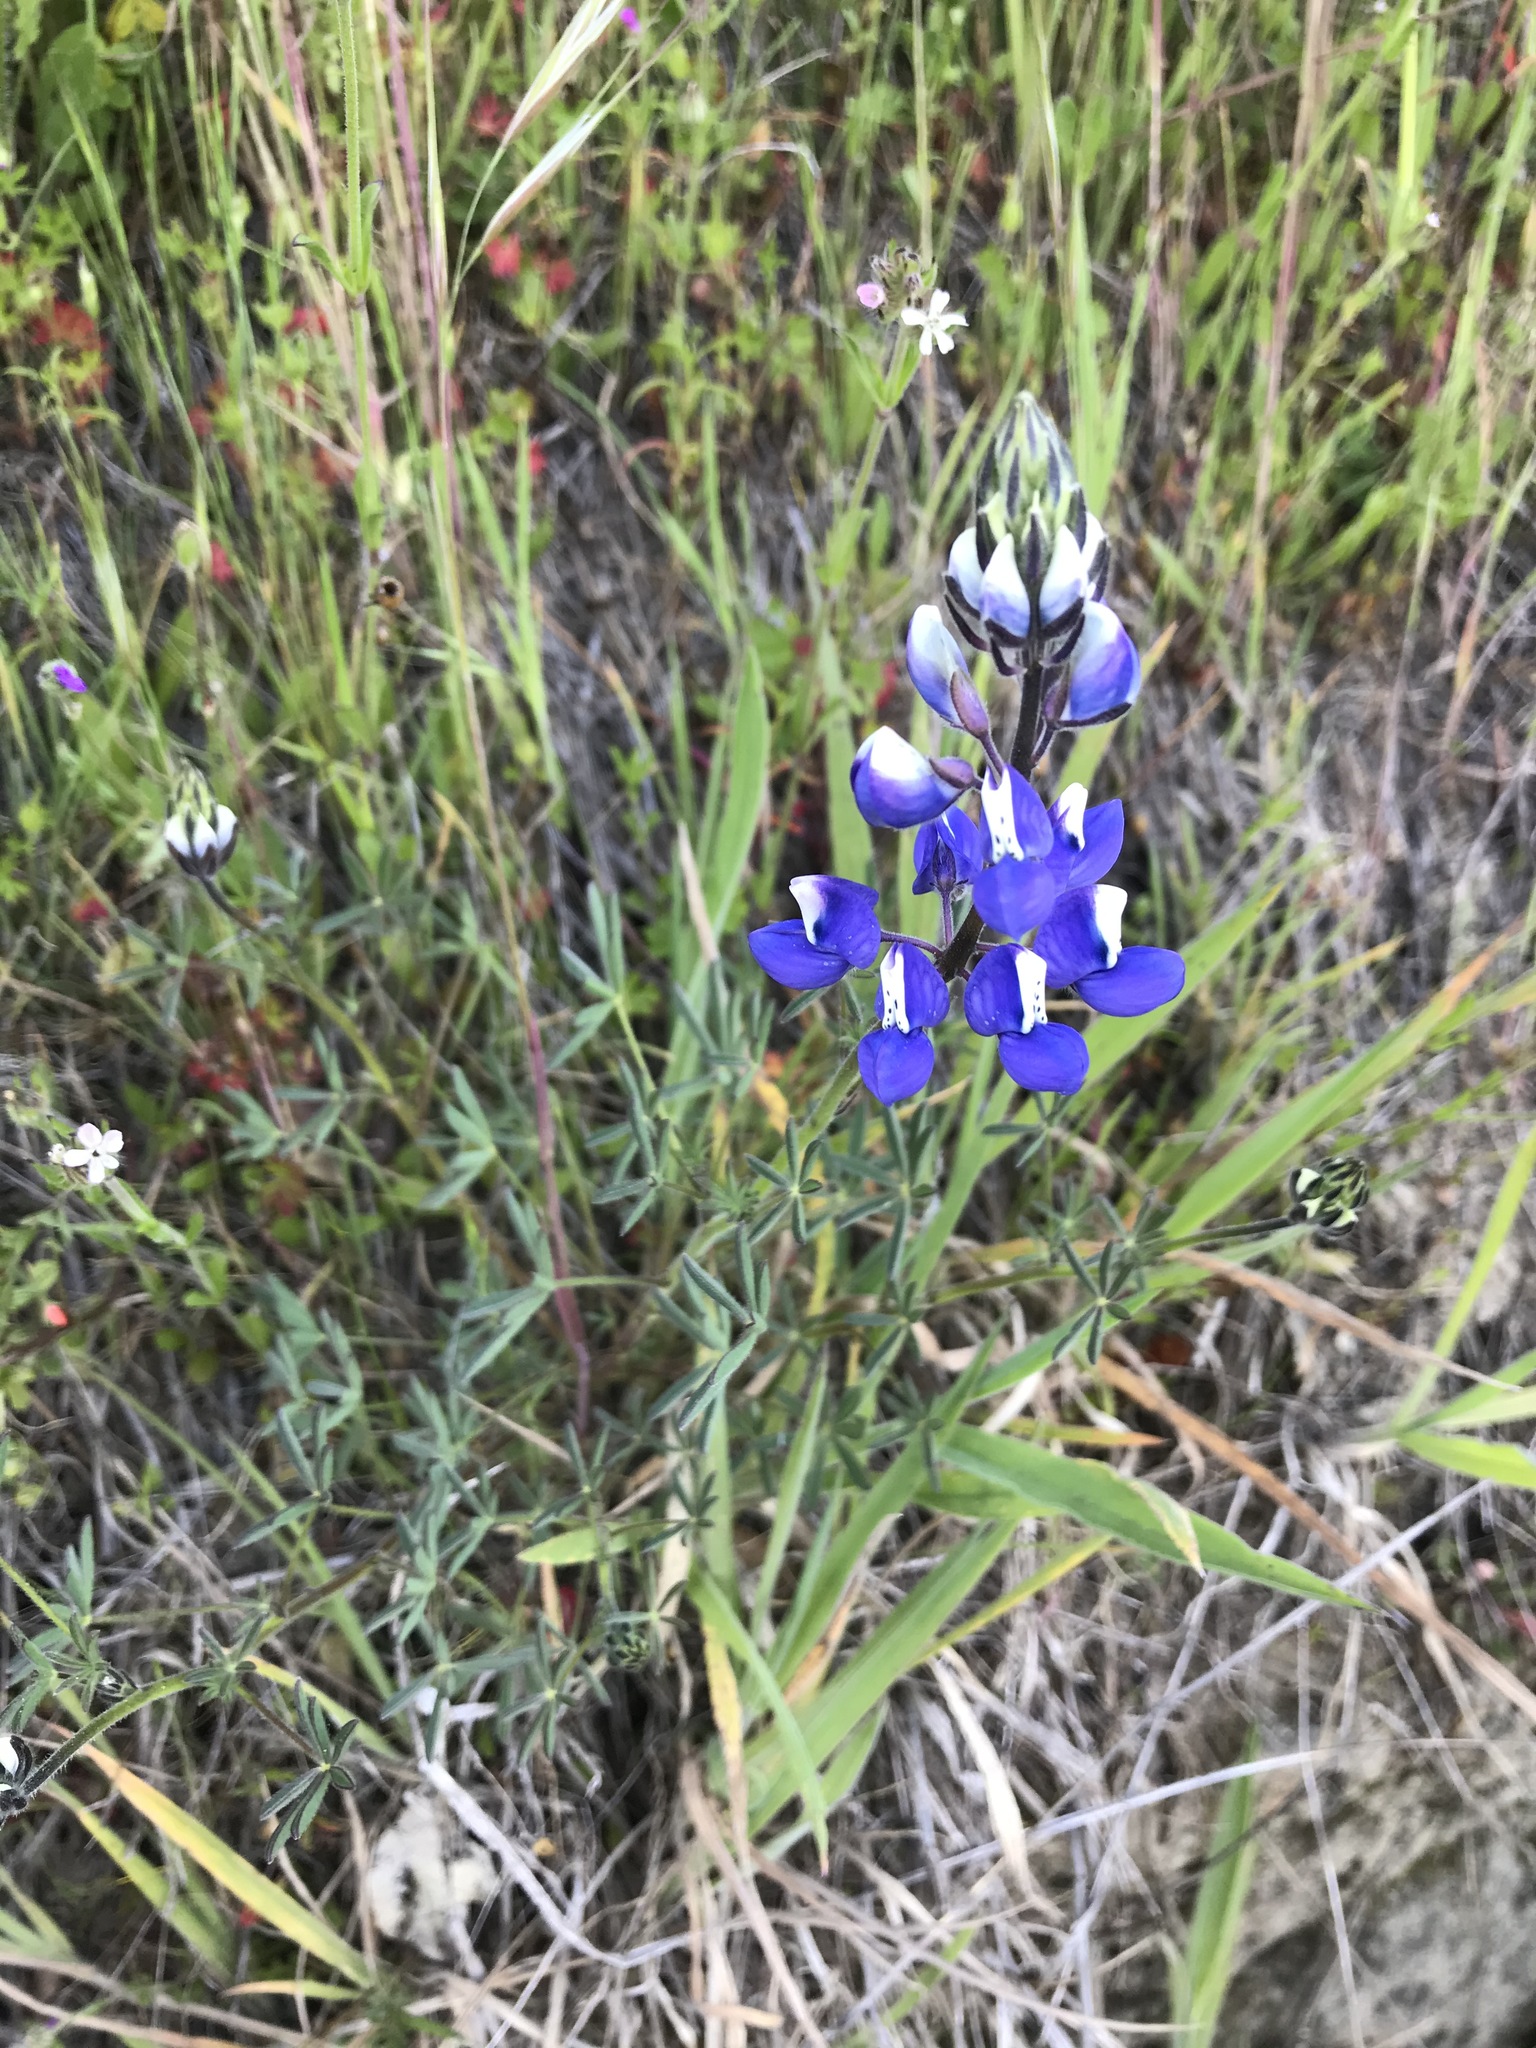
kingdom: Plantae
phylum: Tracheophyta
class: Magnoliopsida
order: Fabales
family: Fabaceae
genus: Lupinus
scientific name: Lupinus nanus
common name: Orean blue lupin
